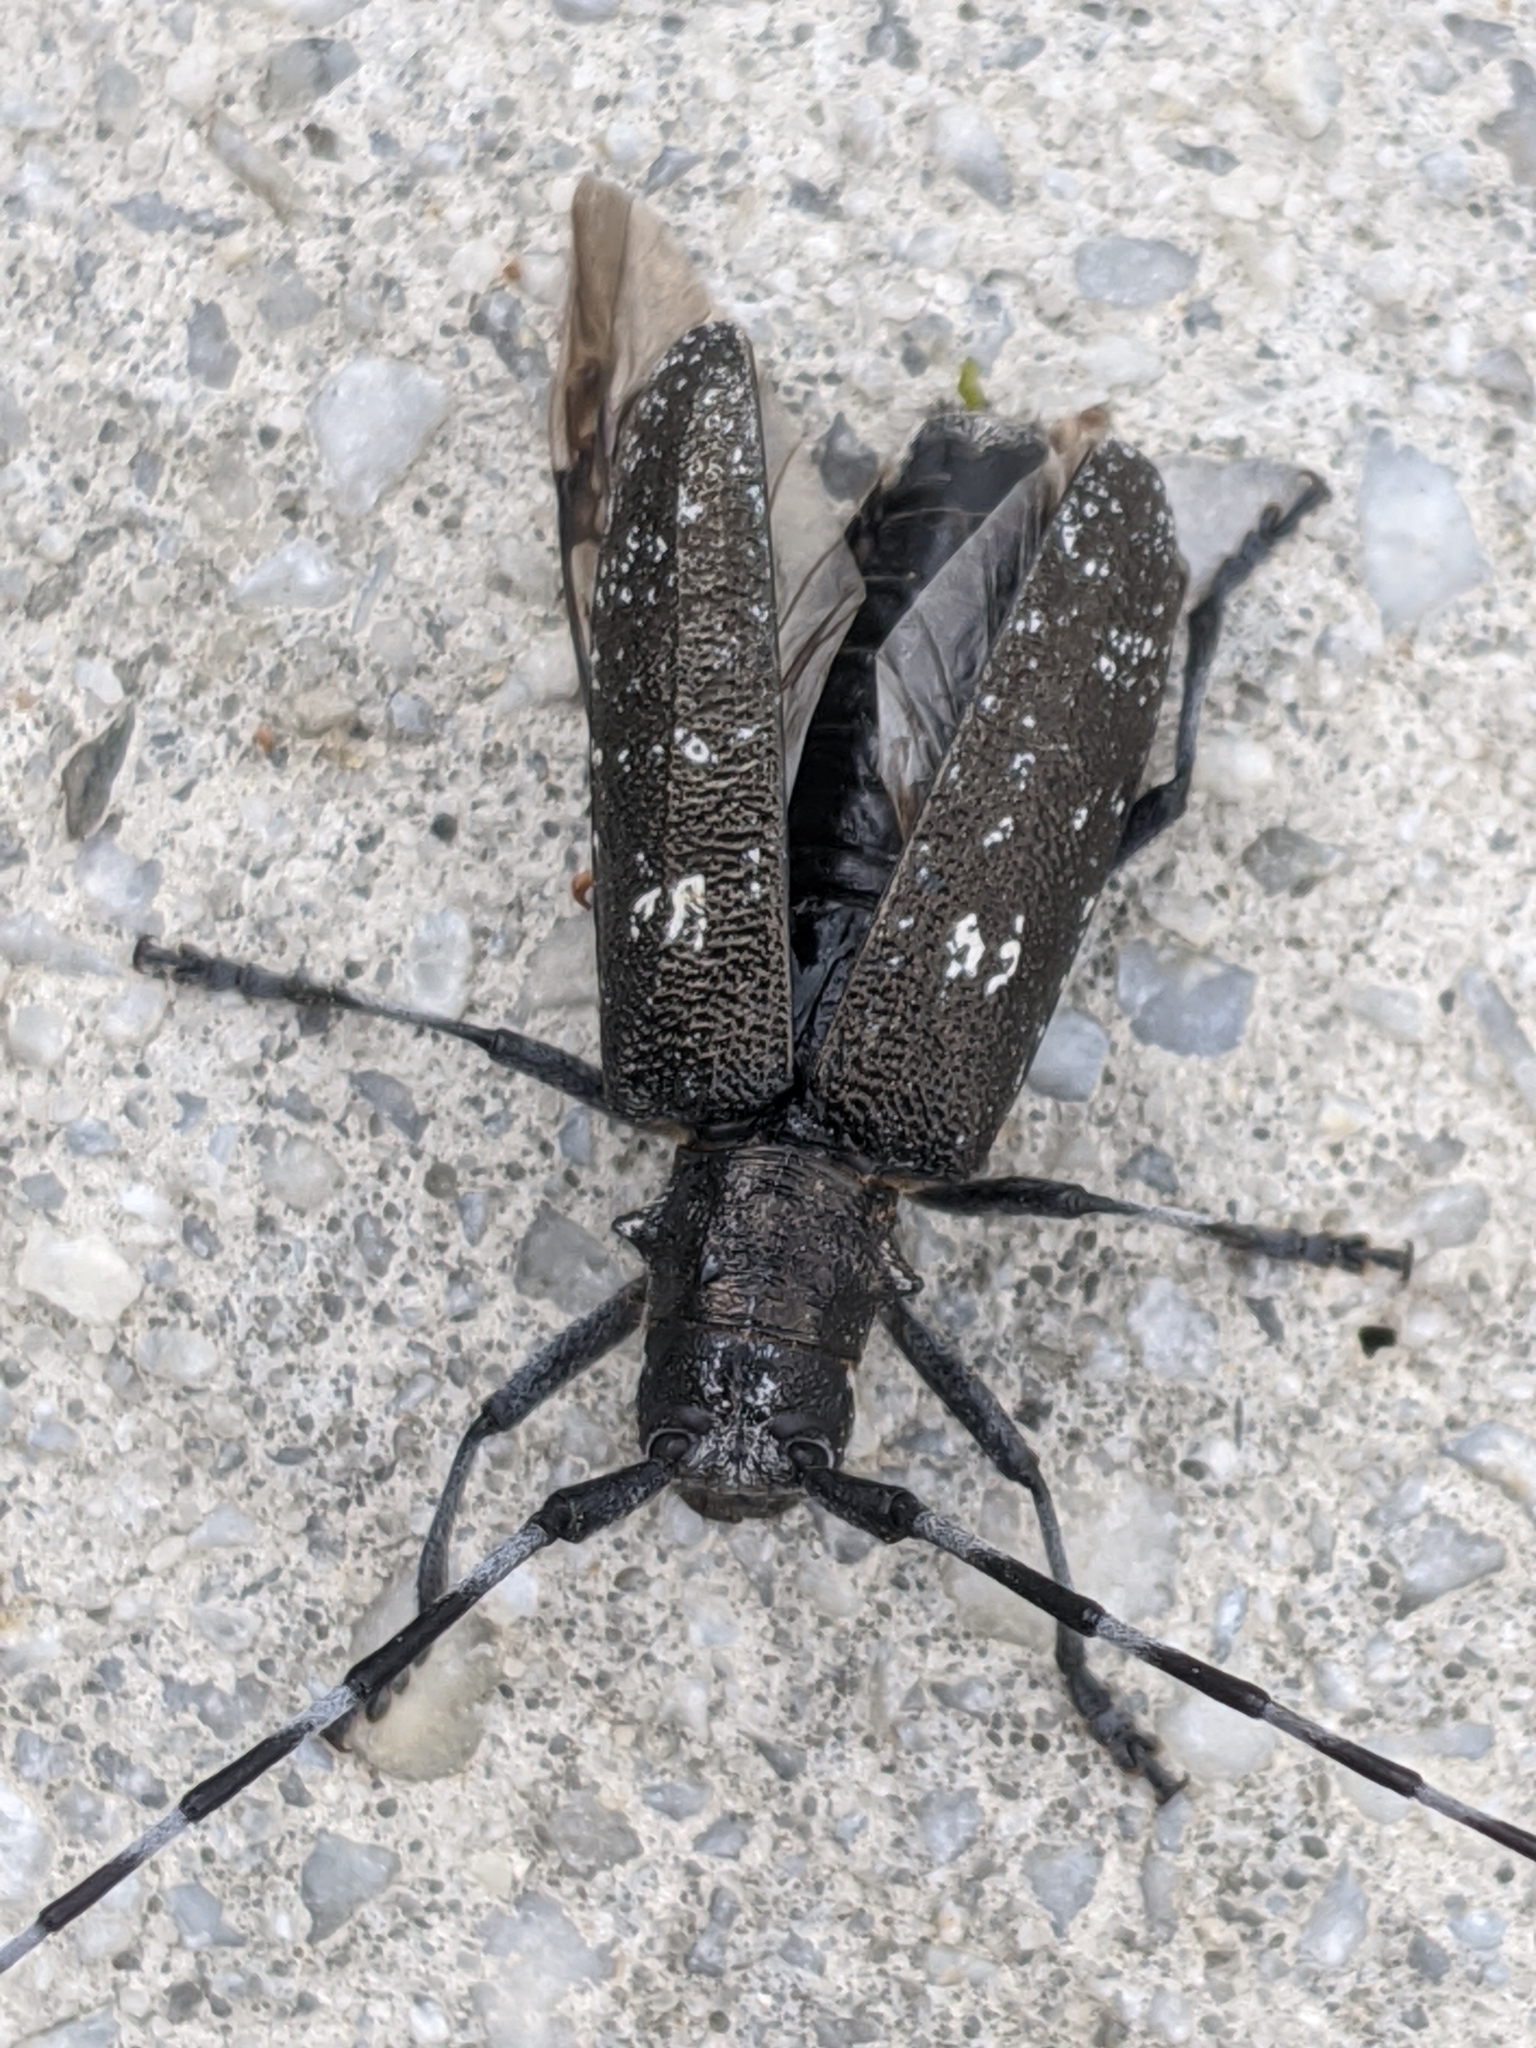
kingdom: Animalia
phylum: Arthropoda
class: Insecta
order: Coleoptera
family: Cerambycidae
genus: Monochamus
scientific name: Monochamus scutellatus
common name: White-spotted sawyer beetle
